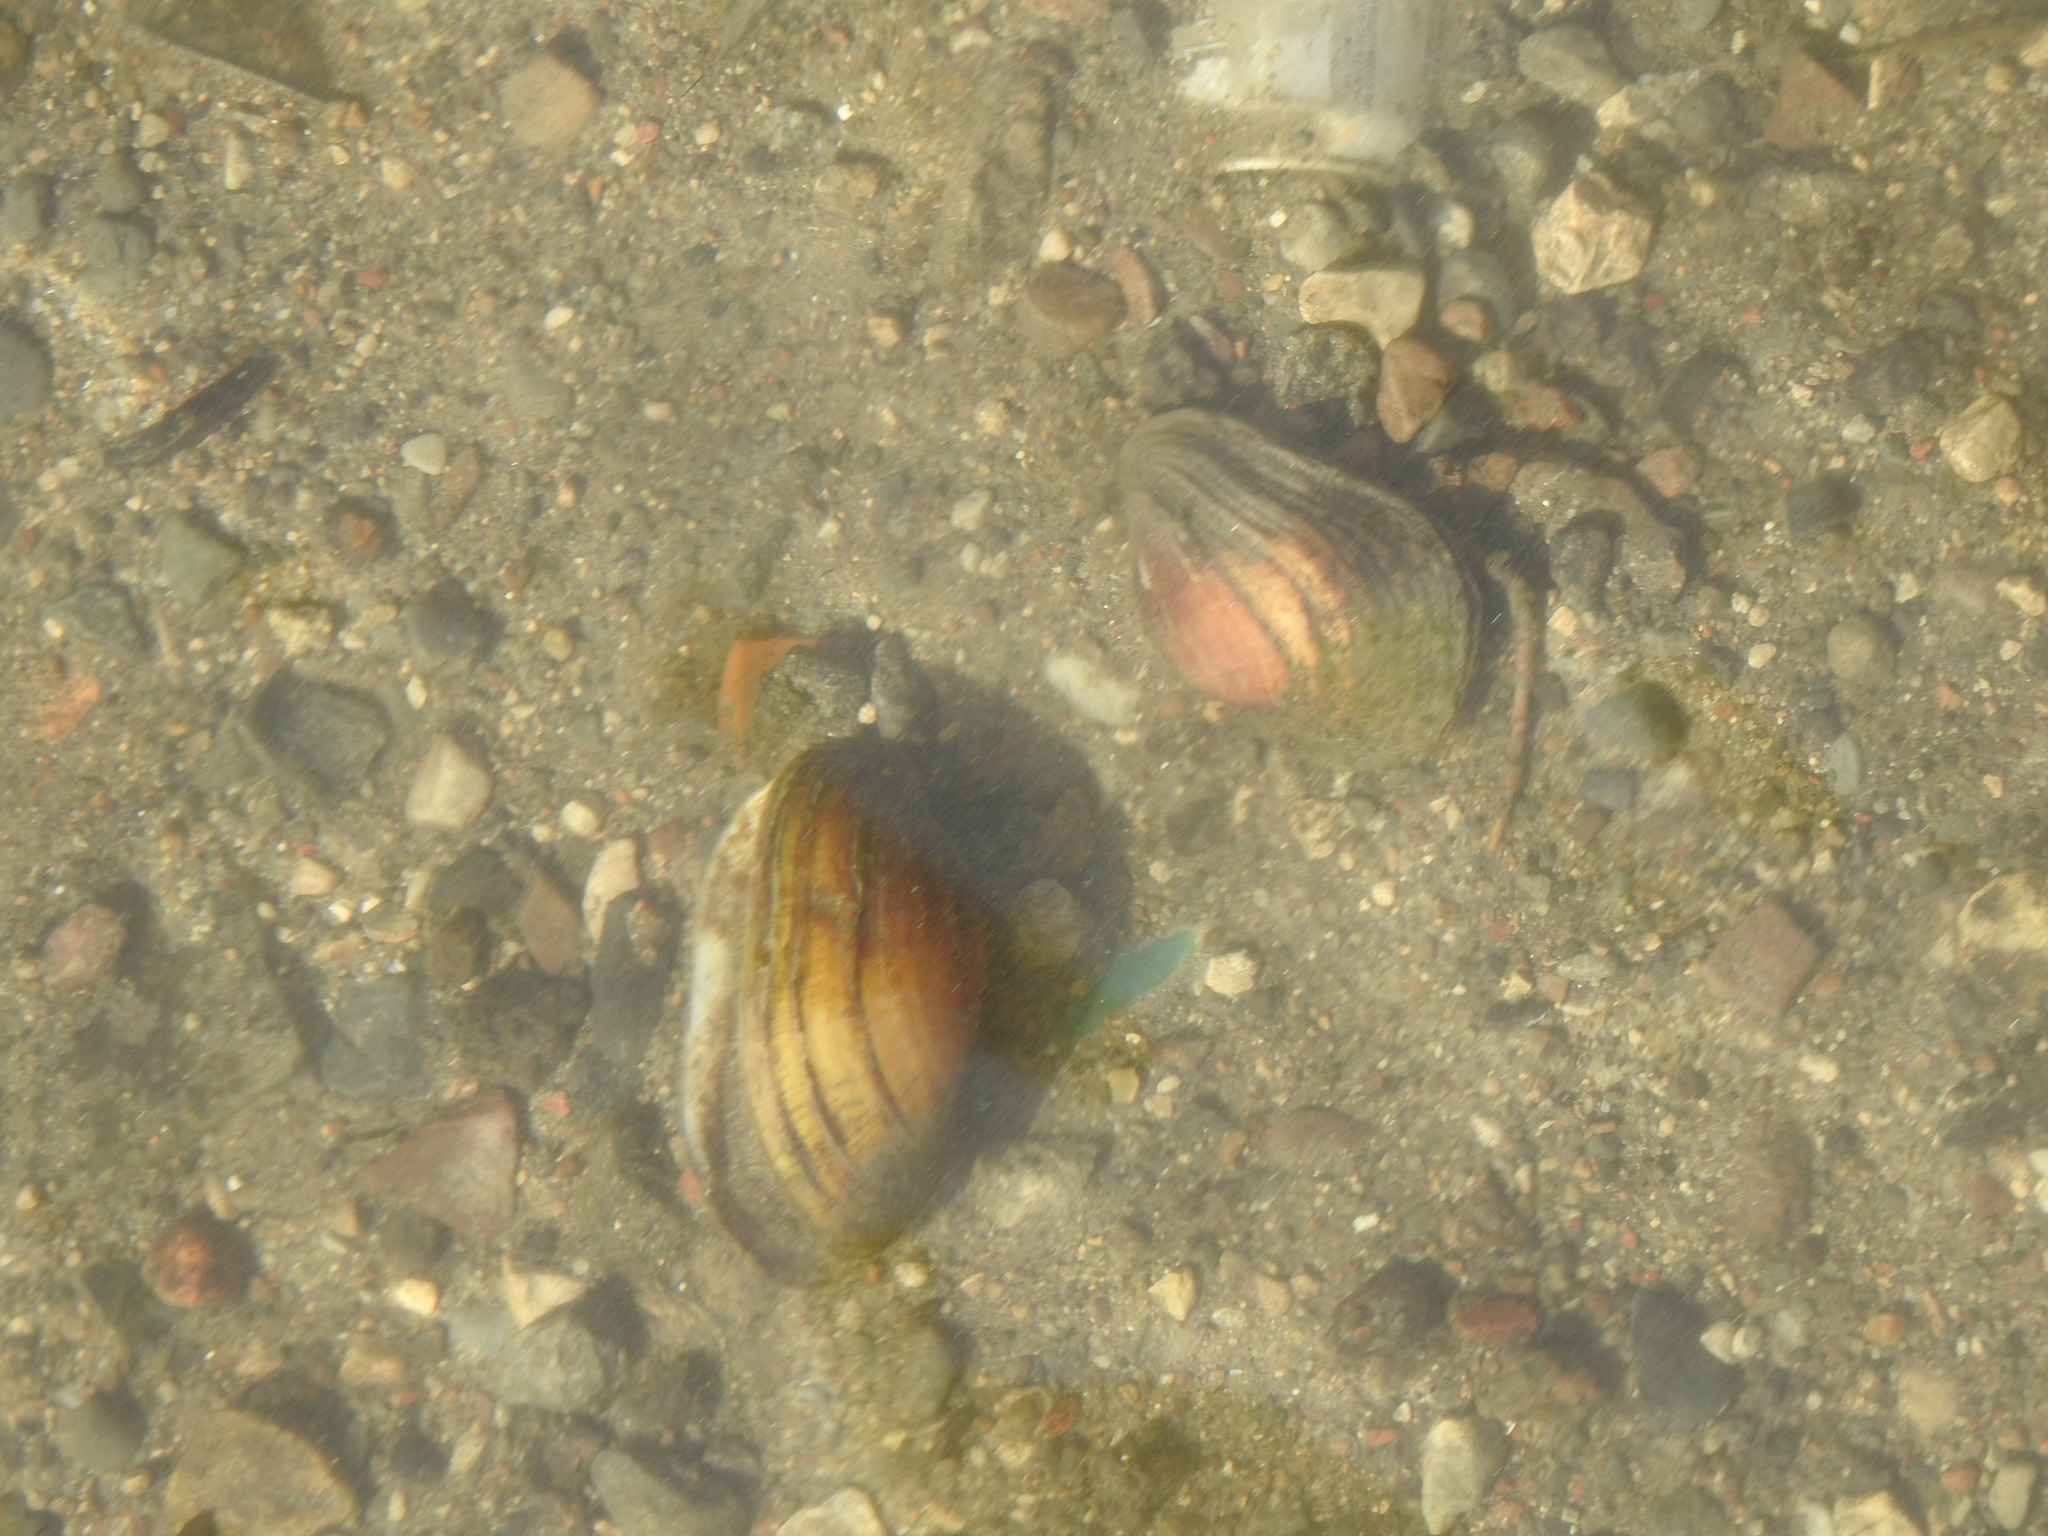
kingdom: Animalia
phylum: Mollusca
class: Bivalvia
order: Unionida
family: Unionidae
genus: Lampsilis
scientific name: Lampsilis siliquoidea
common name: Fatmucket
